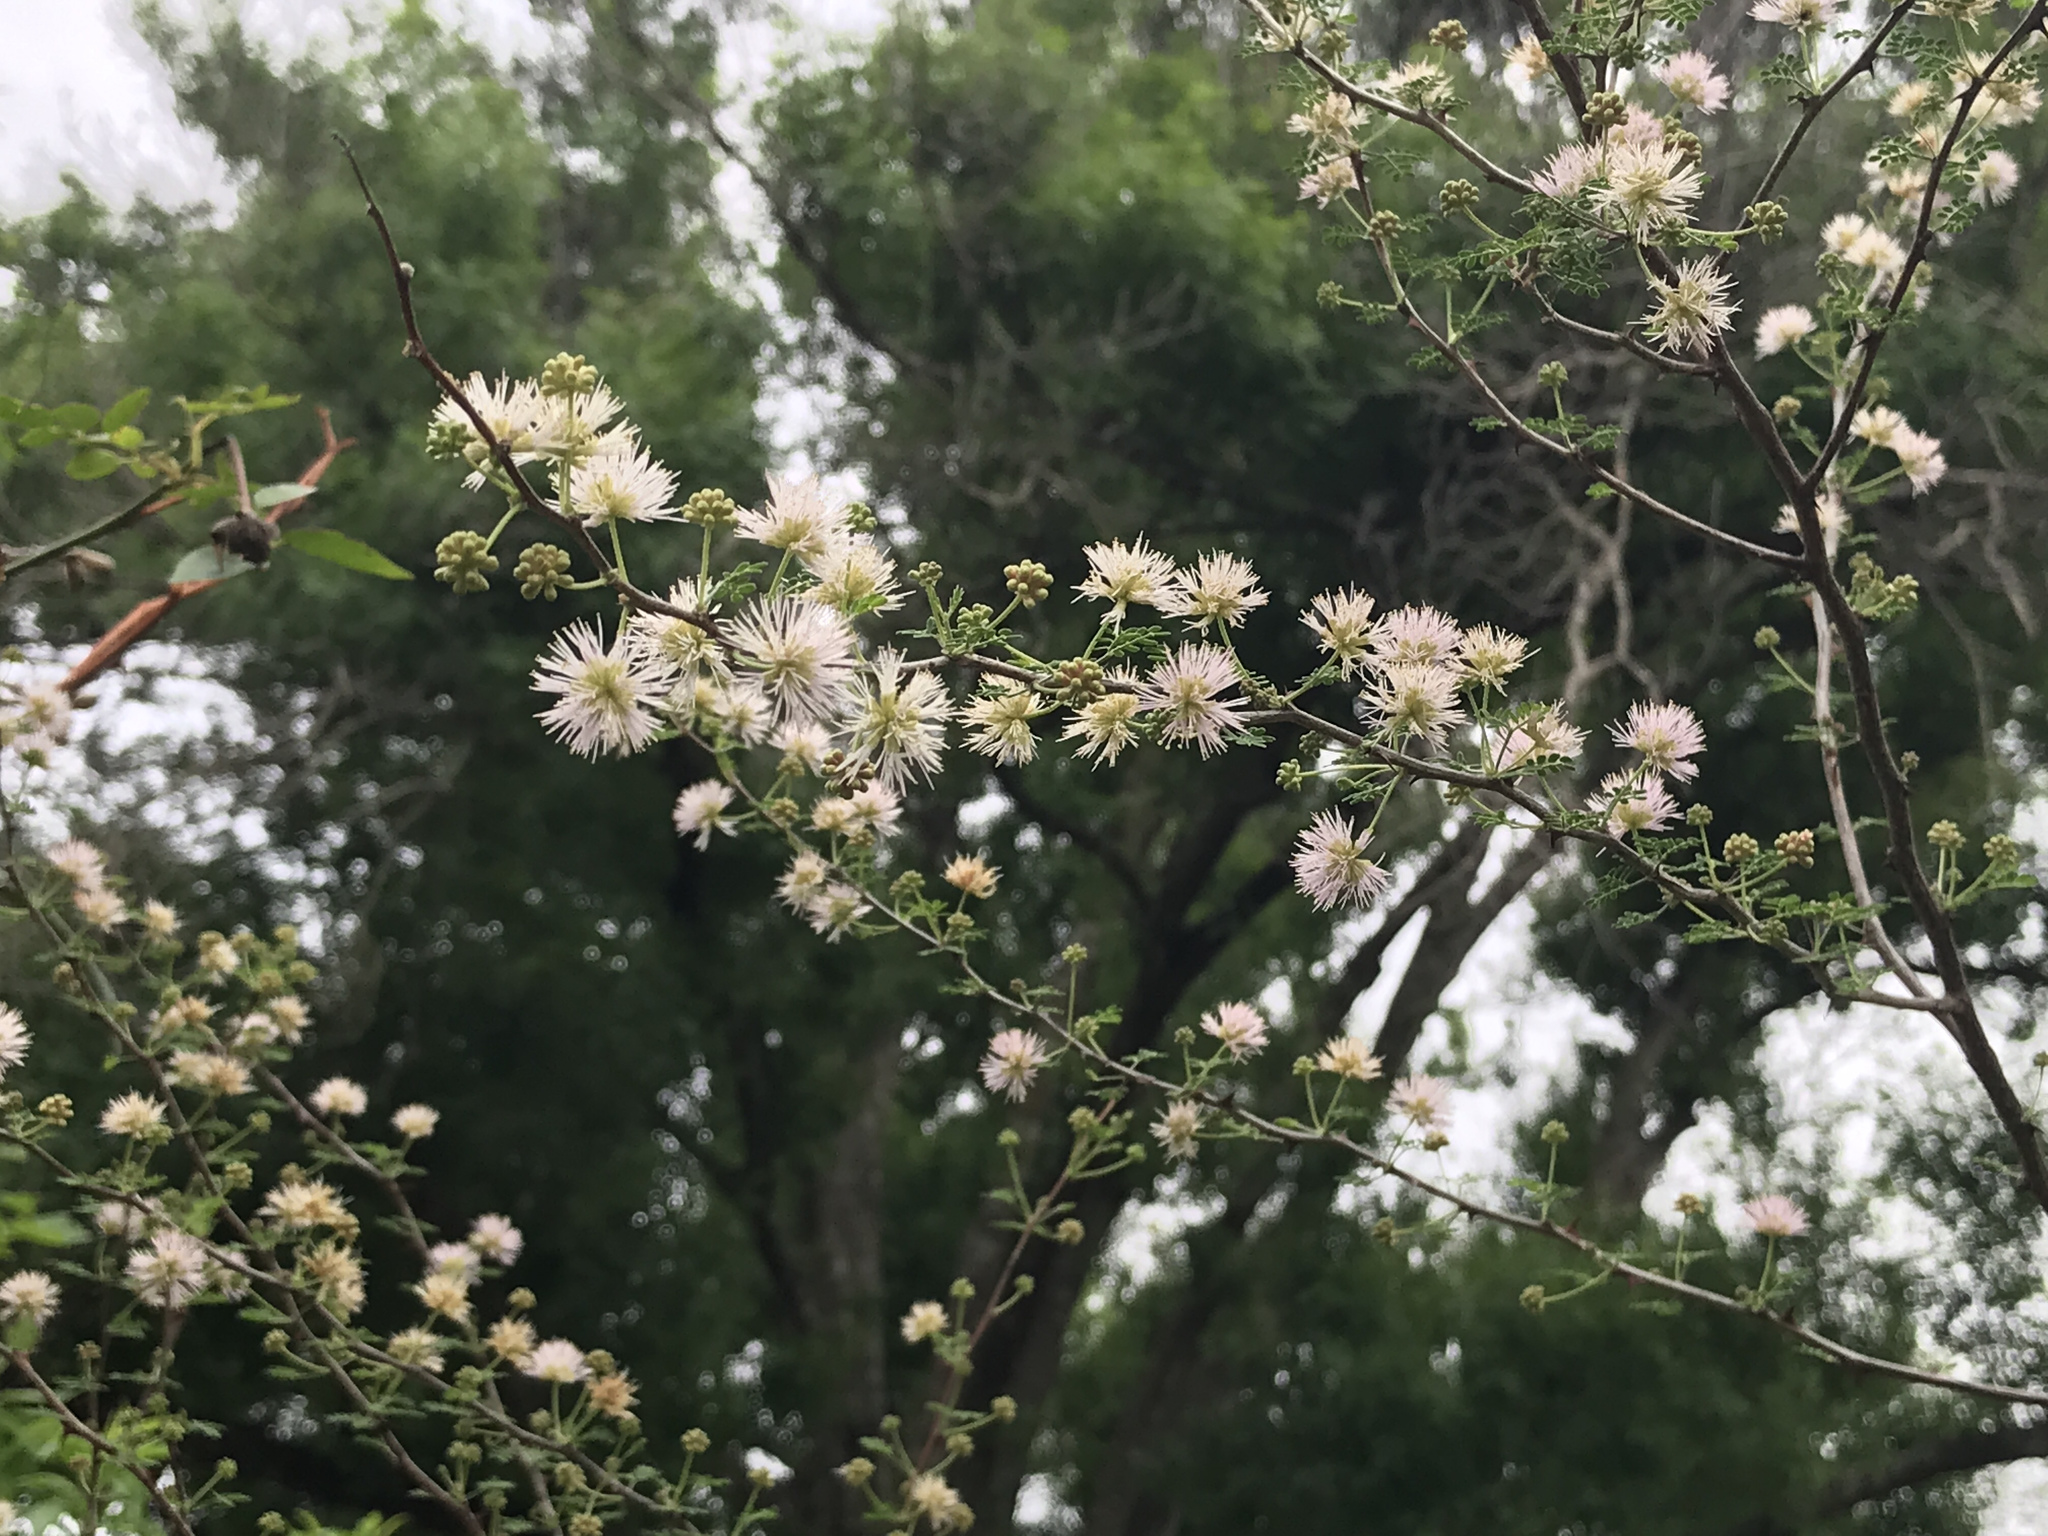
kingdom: Plantae
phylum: Tracheophyta
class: Magnoliopsida
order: Fabales
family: Fabaceae
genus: Mimosa
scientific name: Mimosa texana
